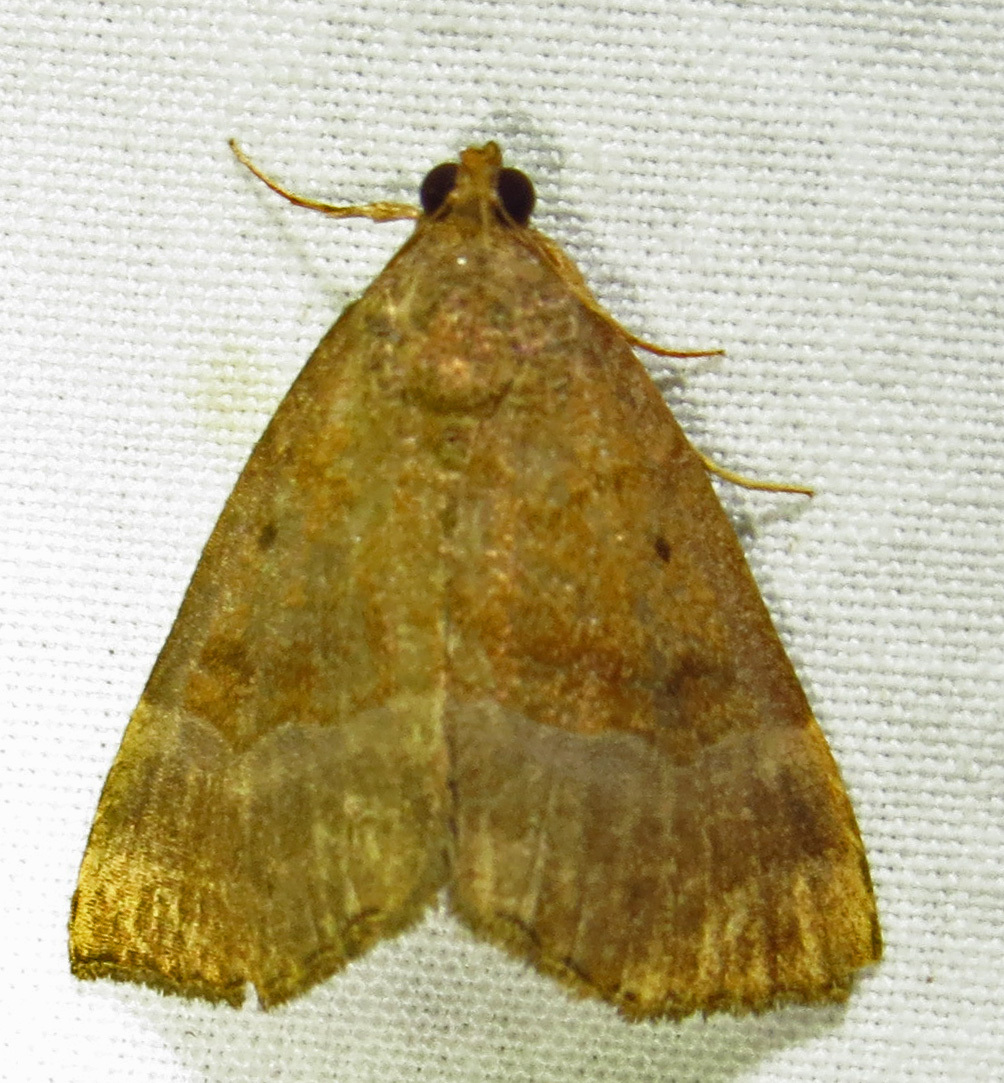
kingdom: Animalia
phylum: Arthropoda
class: Insecta
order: Lepidoptera
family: Erebidae
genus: Hypena
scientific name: Hypena madefactalis
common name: Gray-edged snout
